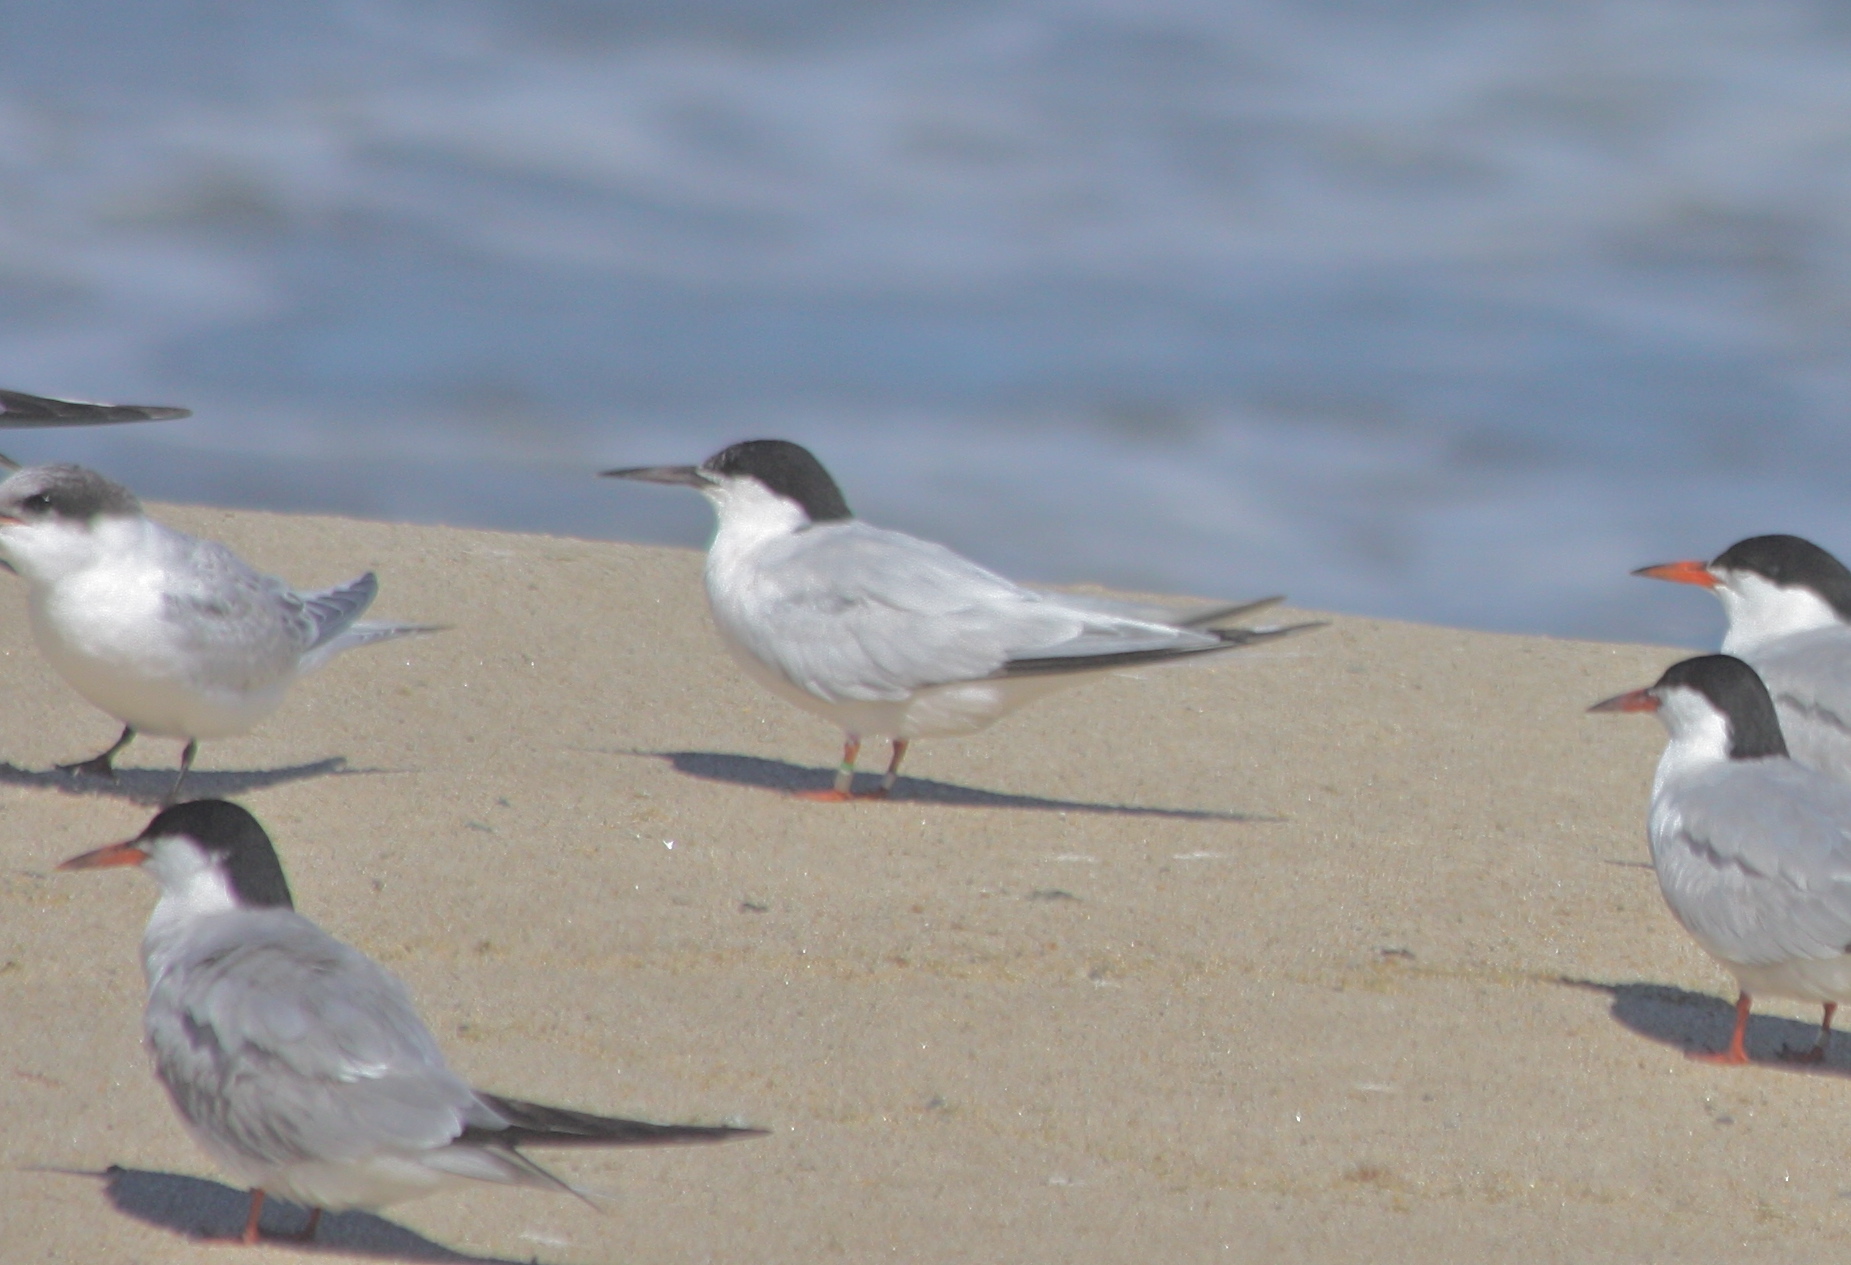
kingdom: Animalia
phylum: Chordata
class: Aves
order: Charadriiformes
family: Laridae
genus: Sterna
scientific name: Sterna dougallii
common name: Roseate tern
